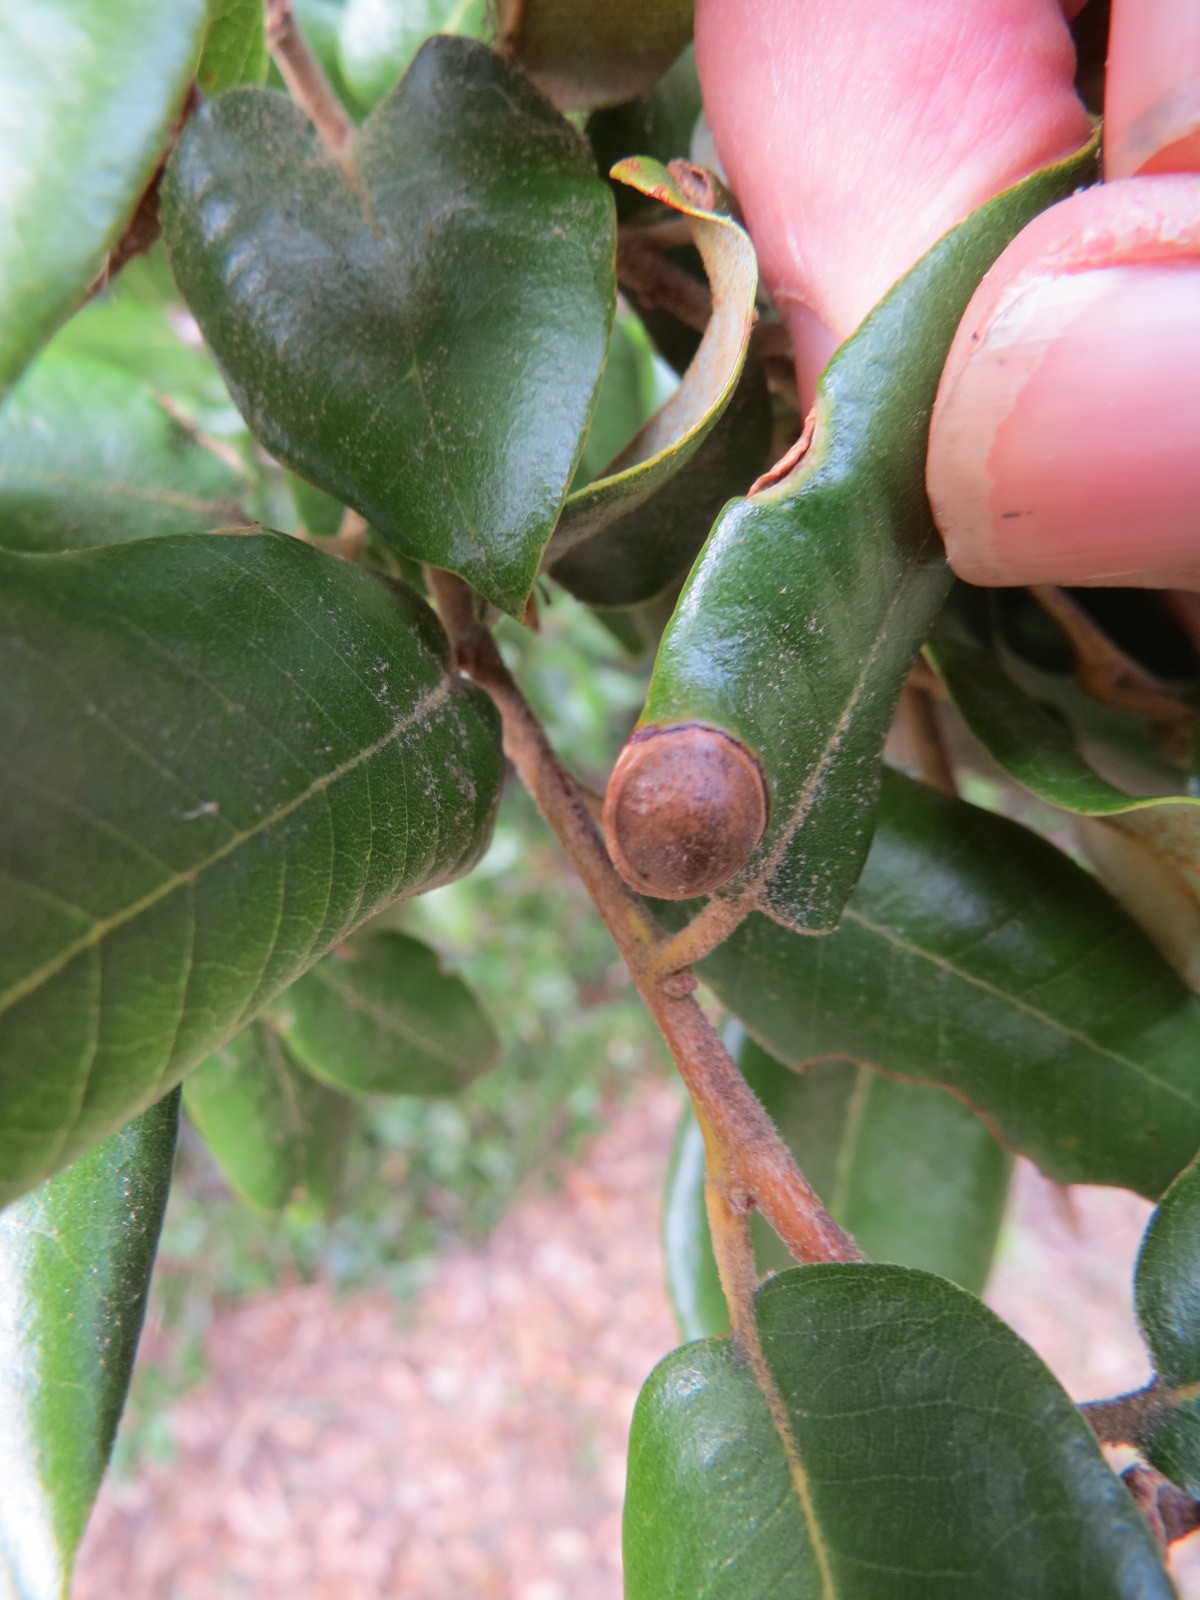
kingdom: Animalia
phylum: Arthropoda
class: Insecta
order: Hymenoptera
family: Cynipidae
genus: Heteroecus
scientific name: Heteroecus
